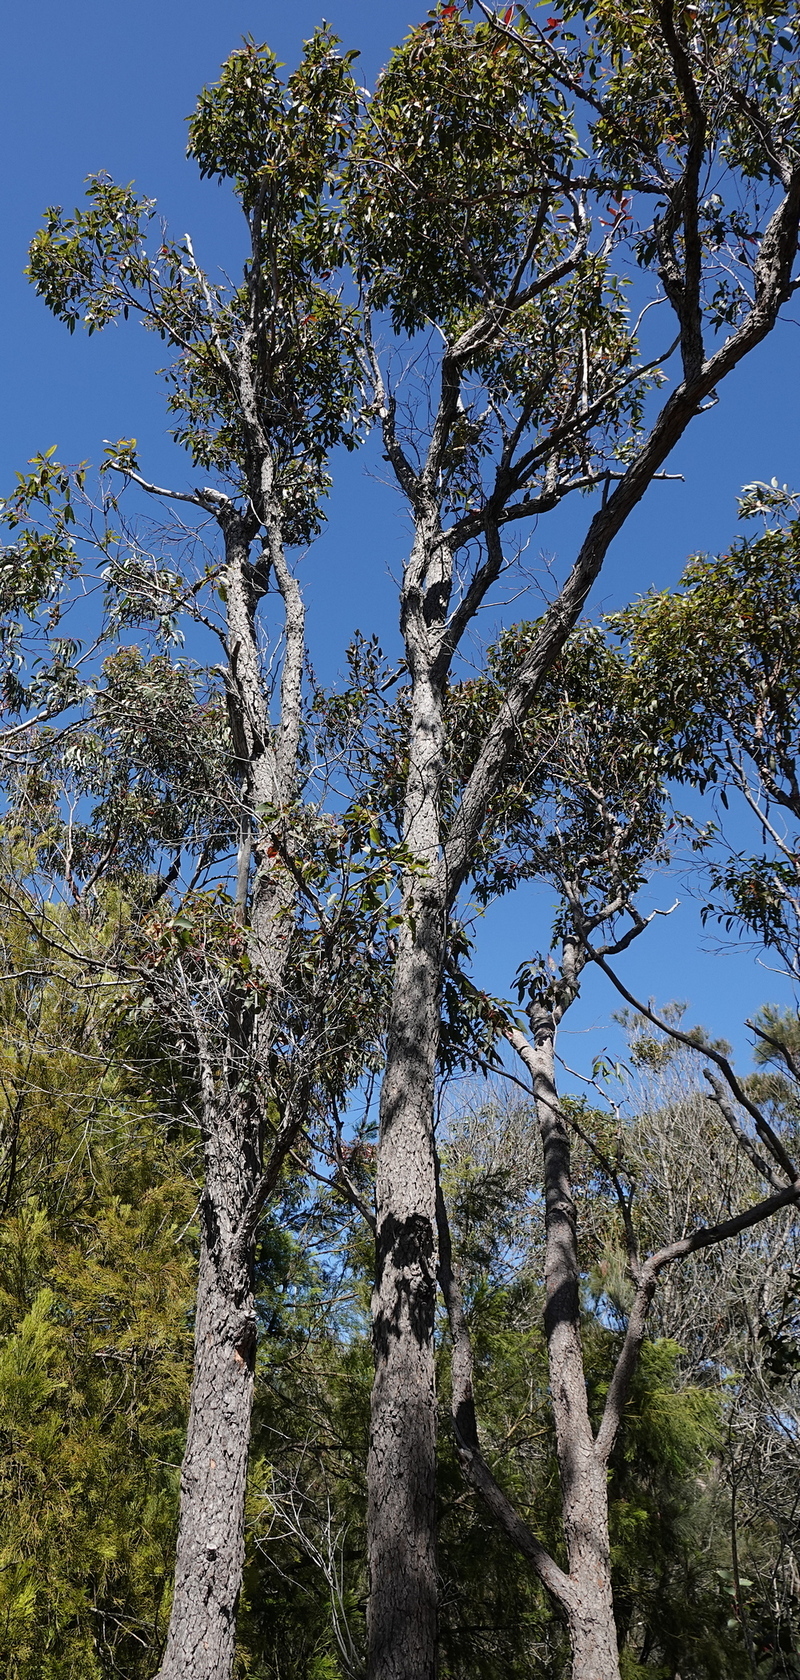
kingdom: Plantae
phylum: Tracheophyta
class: Magnoliopsida
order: Myrtales
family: Myrtaceae
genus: Corymbia
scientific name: Corymbia gummifera
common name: Red bloodwood
